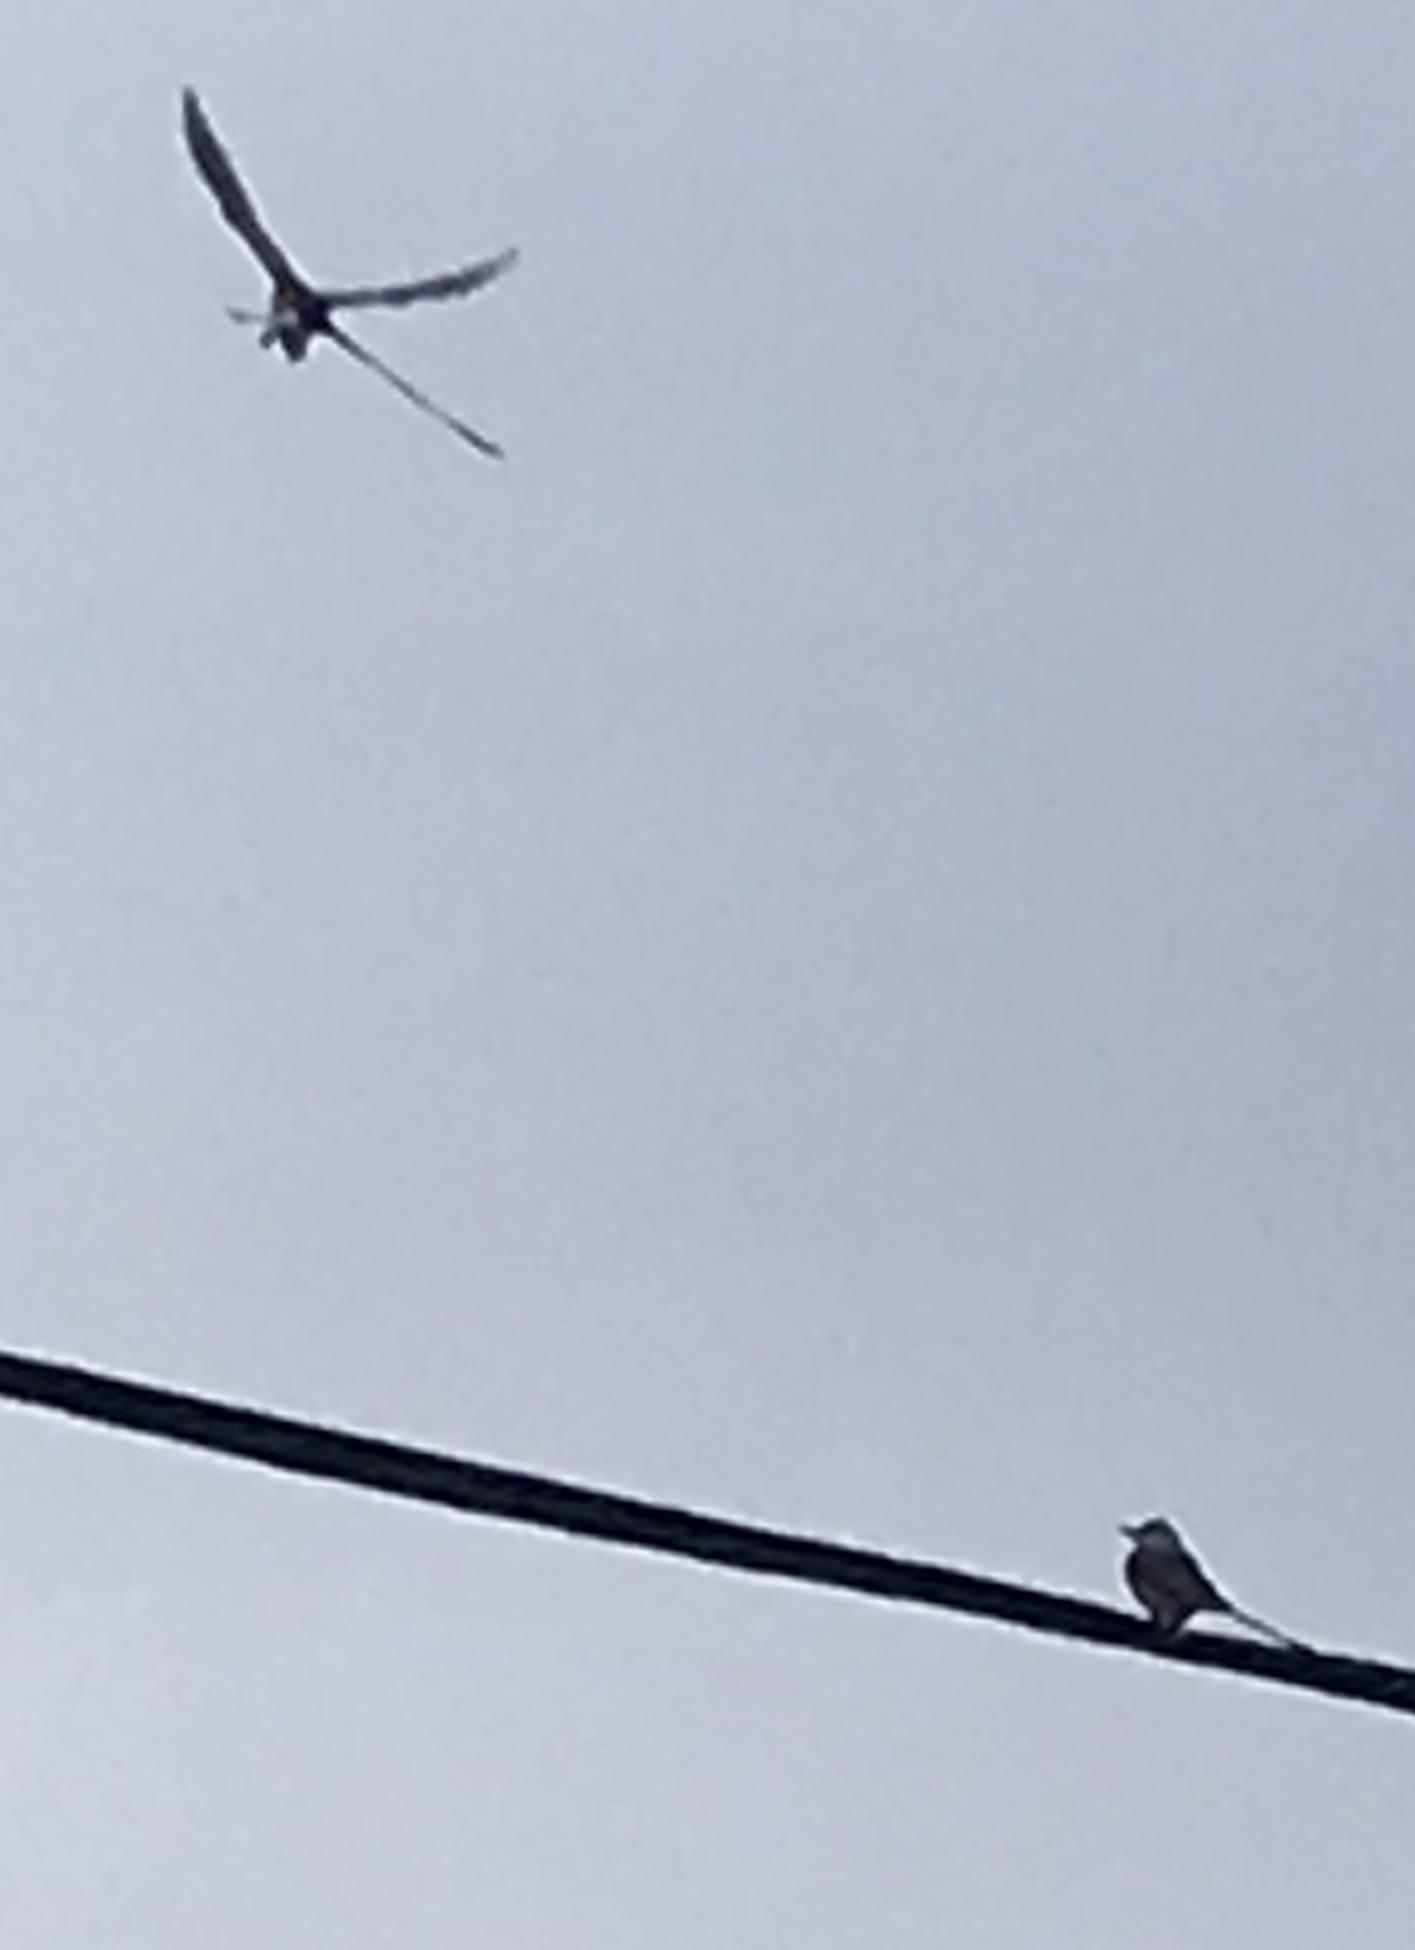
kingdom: Animalia
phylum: Chordata
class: Aves
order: Passeriformes
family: Tyrannidae
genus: Tyrannus
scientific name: Tyrannus forficatus
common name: Scissor-tailed flycatcher
